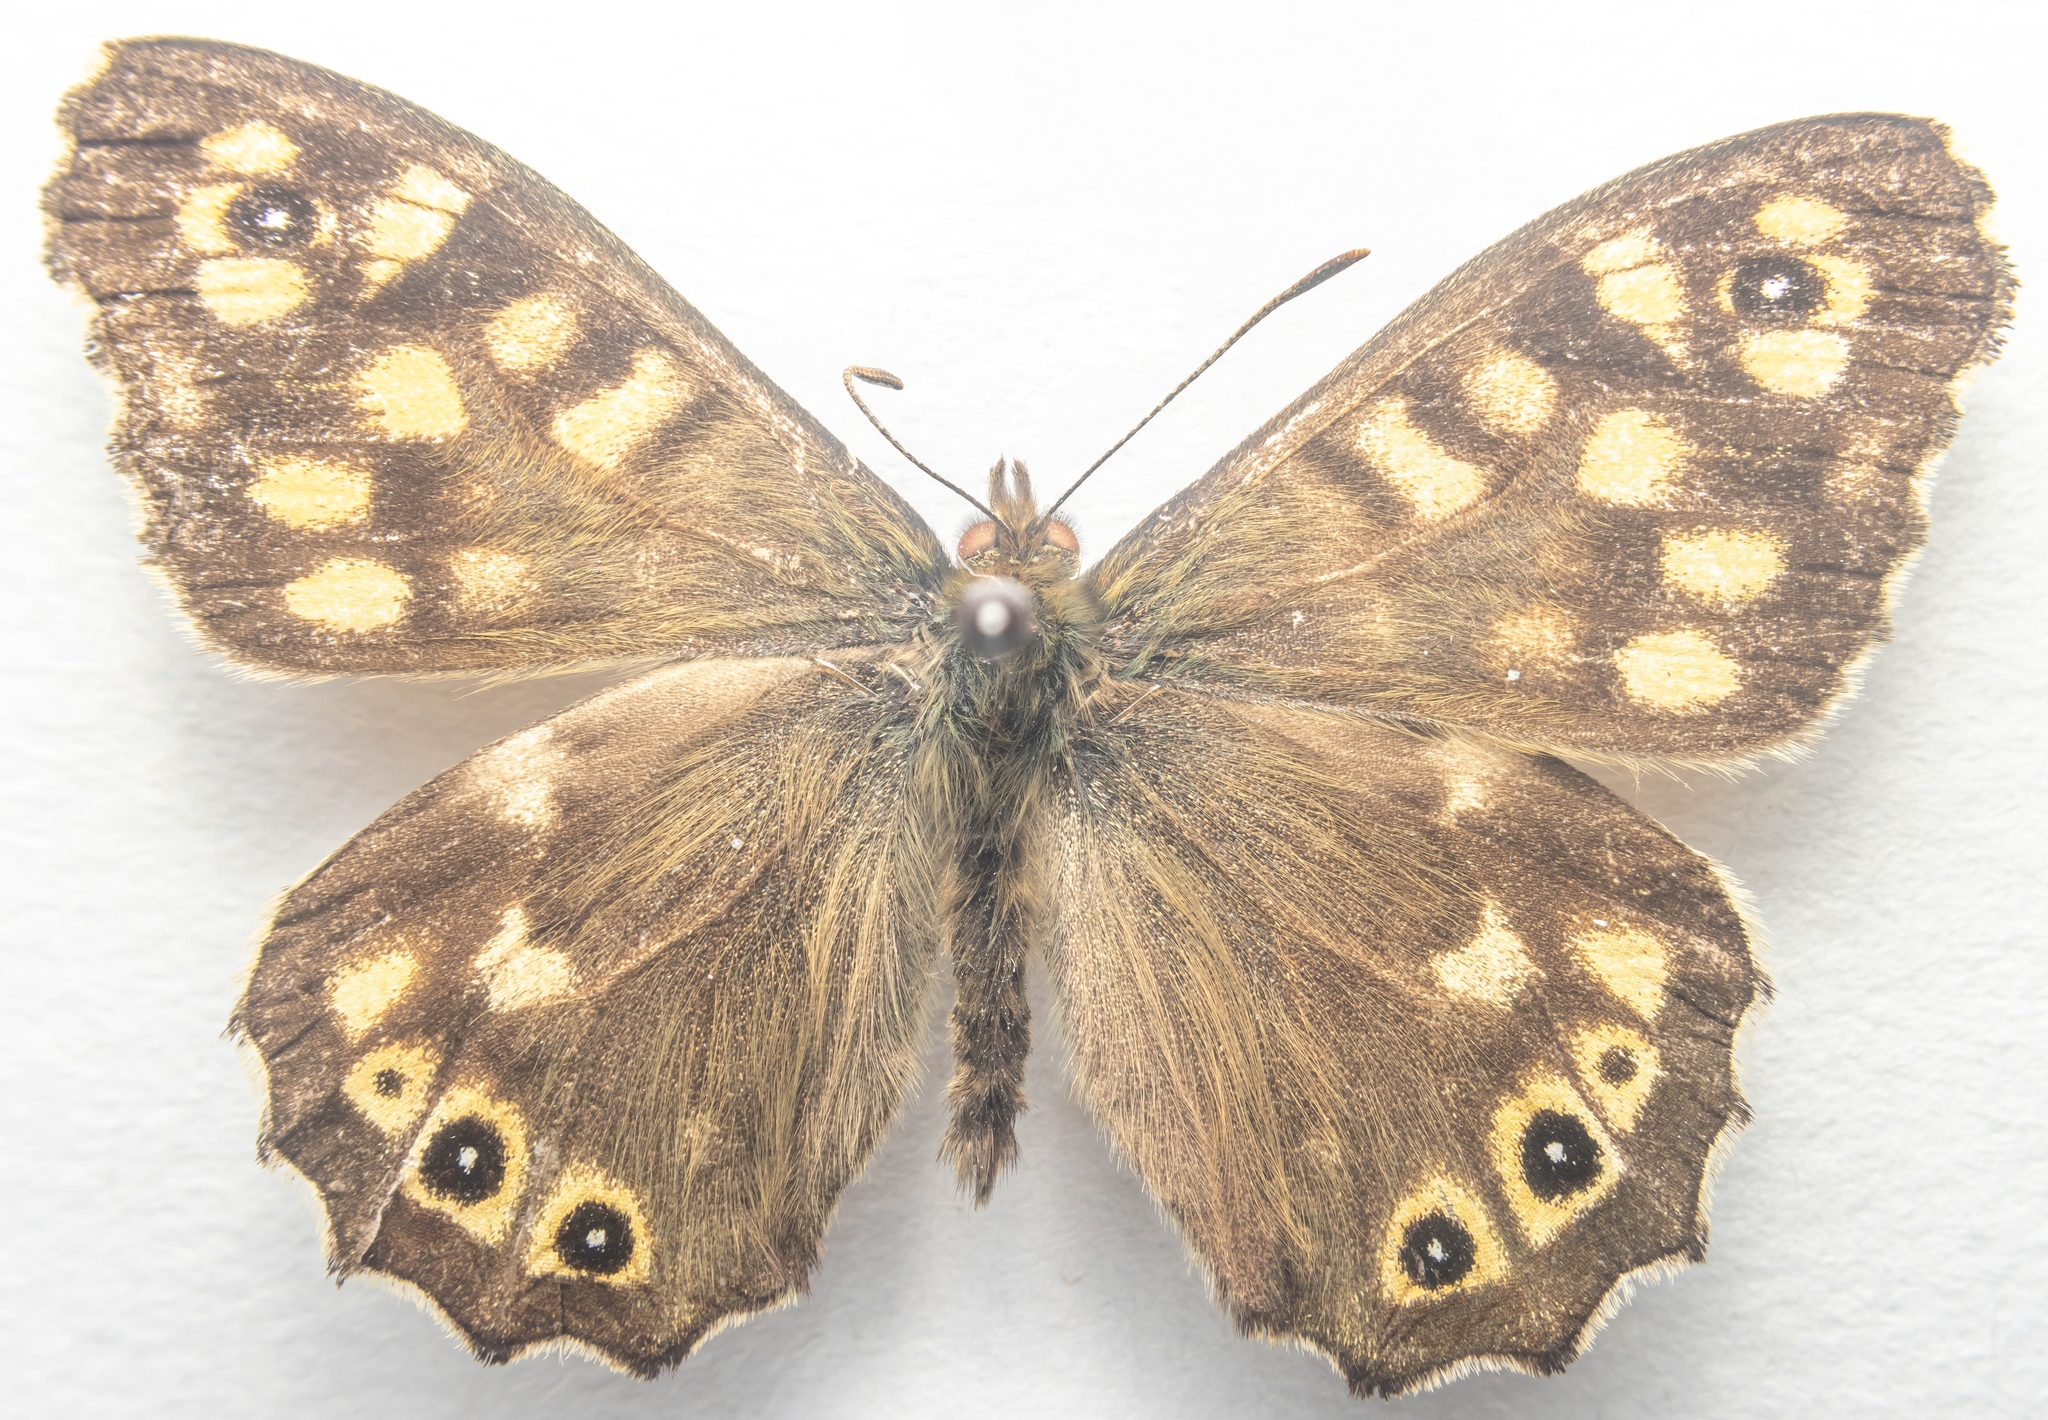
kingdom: Animalia
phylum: Arthropoda
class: Insecta
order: Lepidoptera
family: Nymphalidae
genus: Pararge
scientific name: Pararge aegeria
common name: Speckled wood
